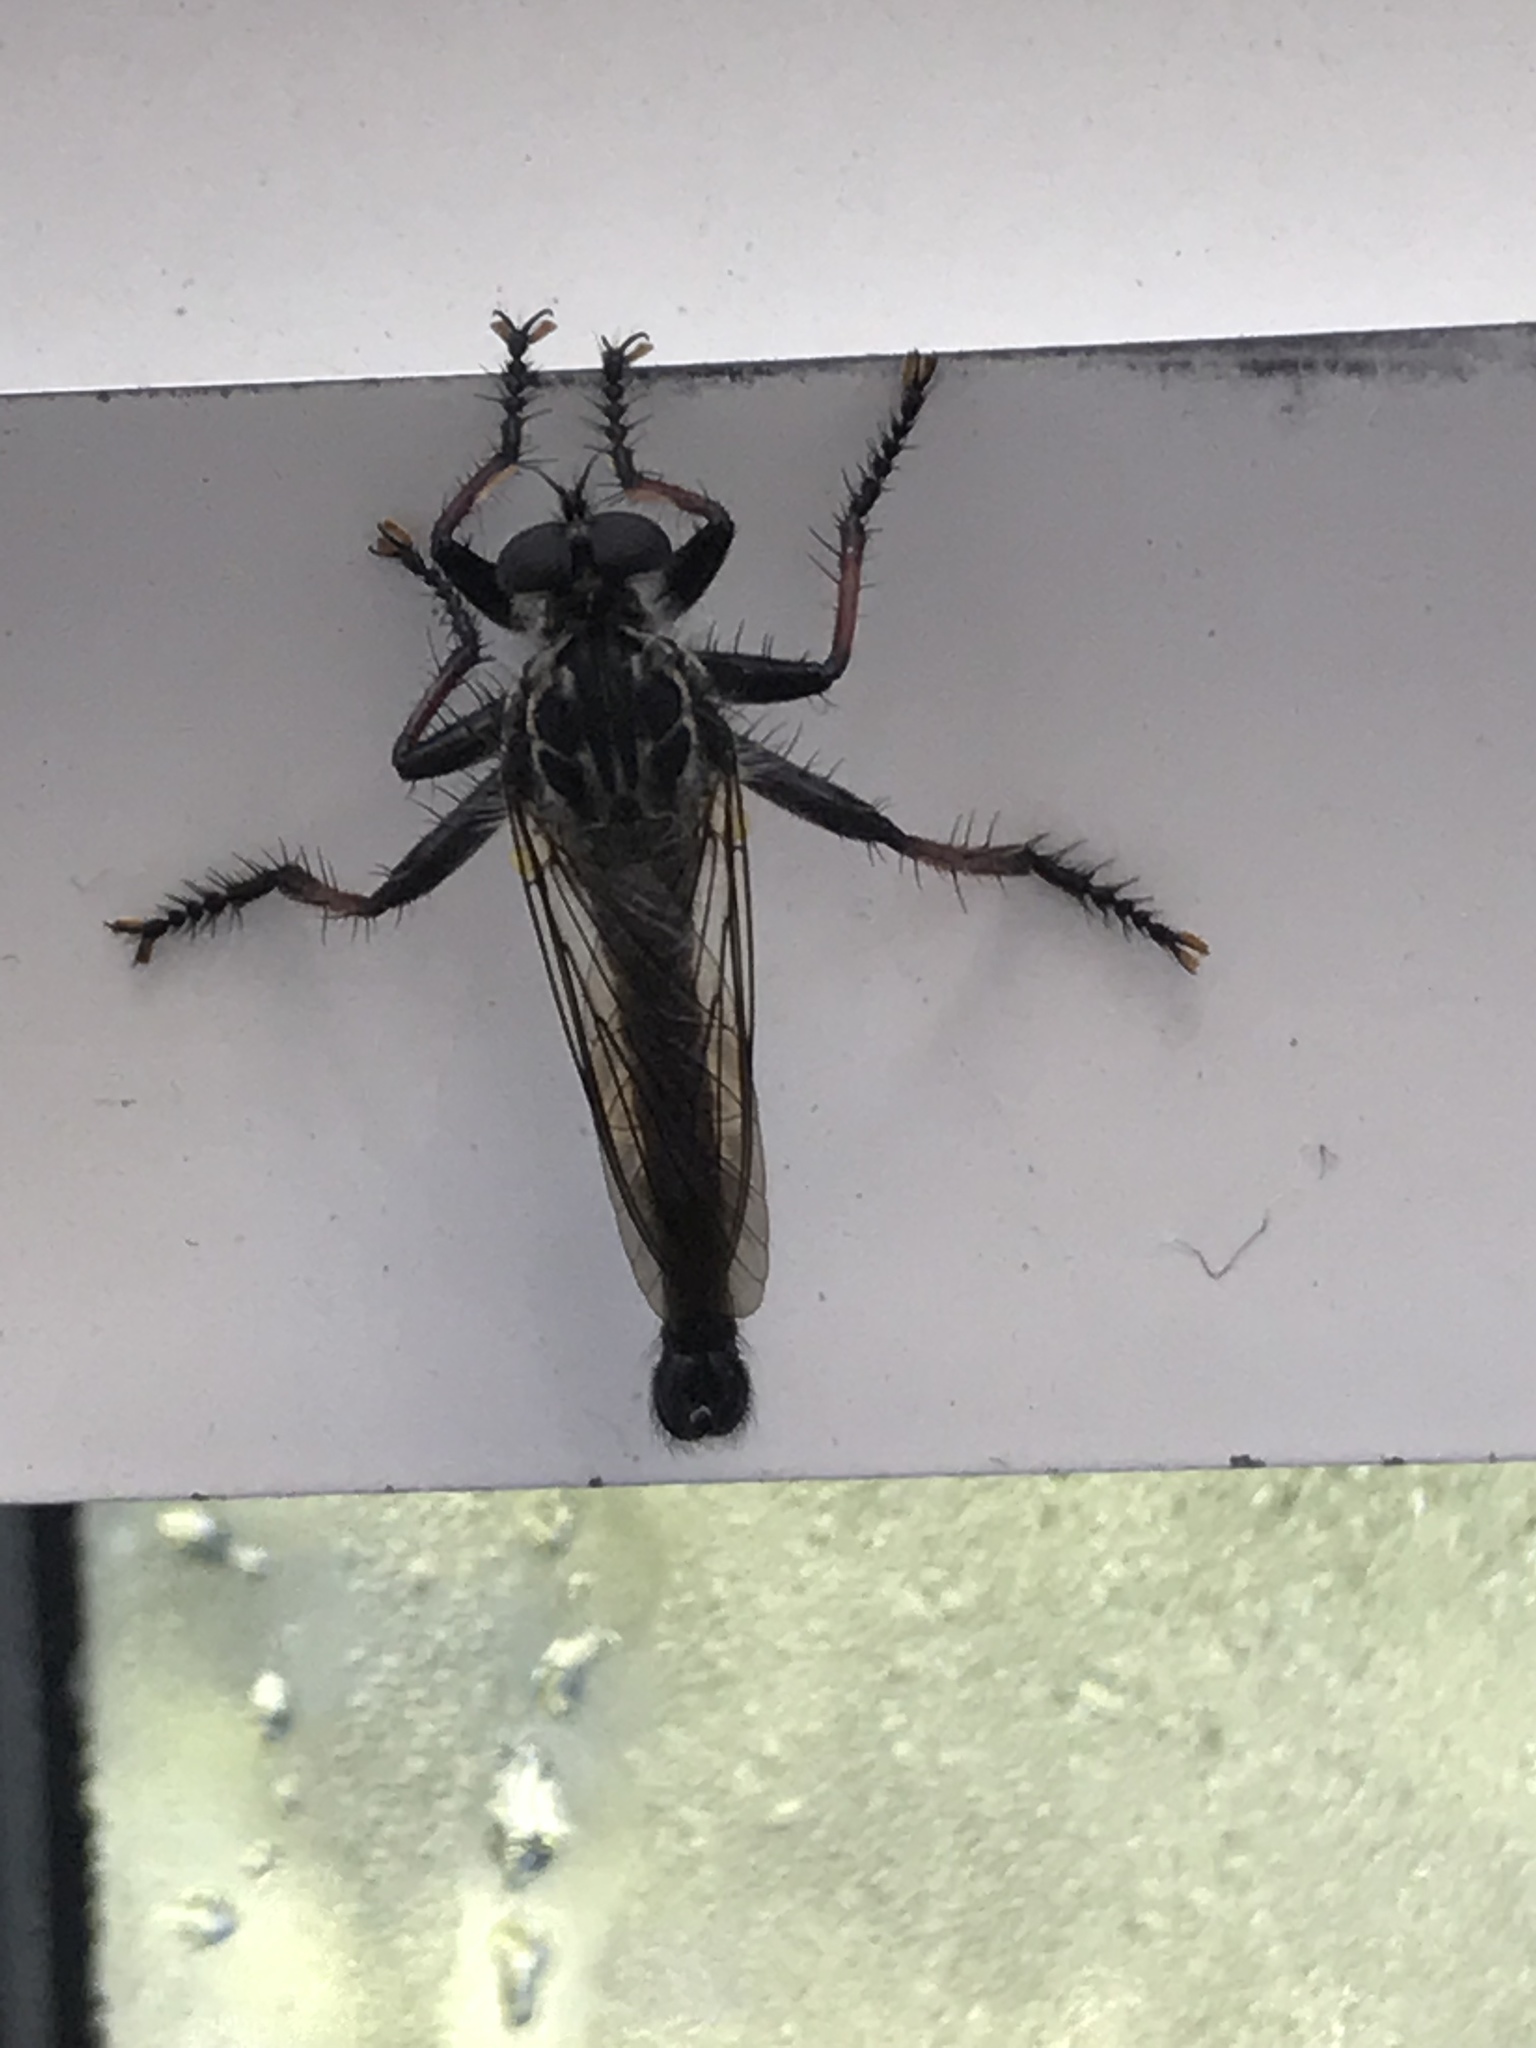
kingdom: Animalia
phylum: Arthropoda
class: Insecta
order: Diptera
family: Asilidae
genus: Neoitamus
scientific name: Neoitamus bulbus
